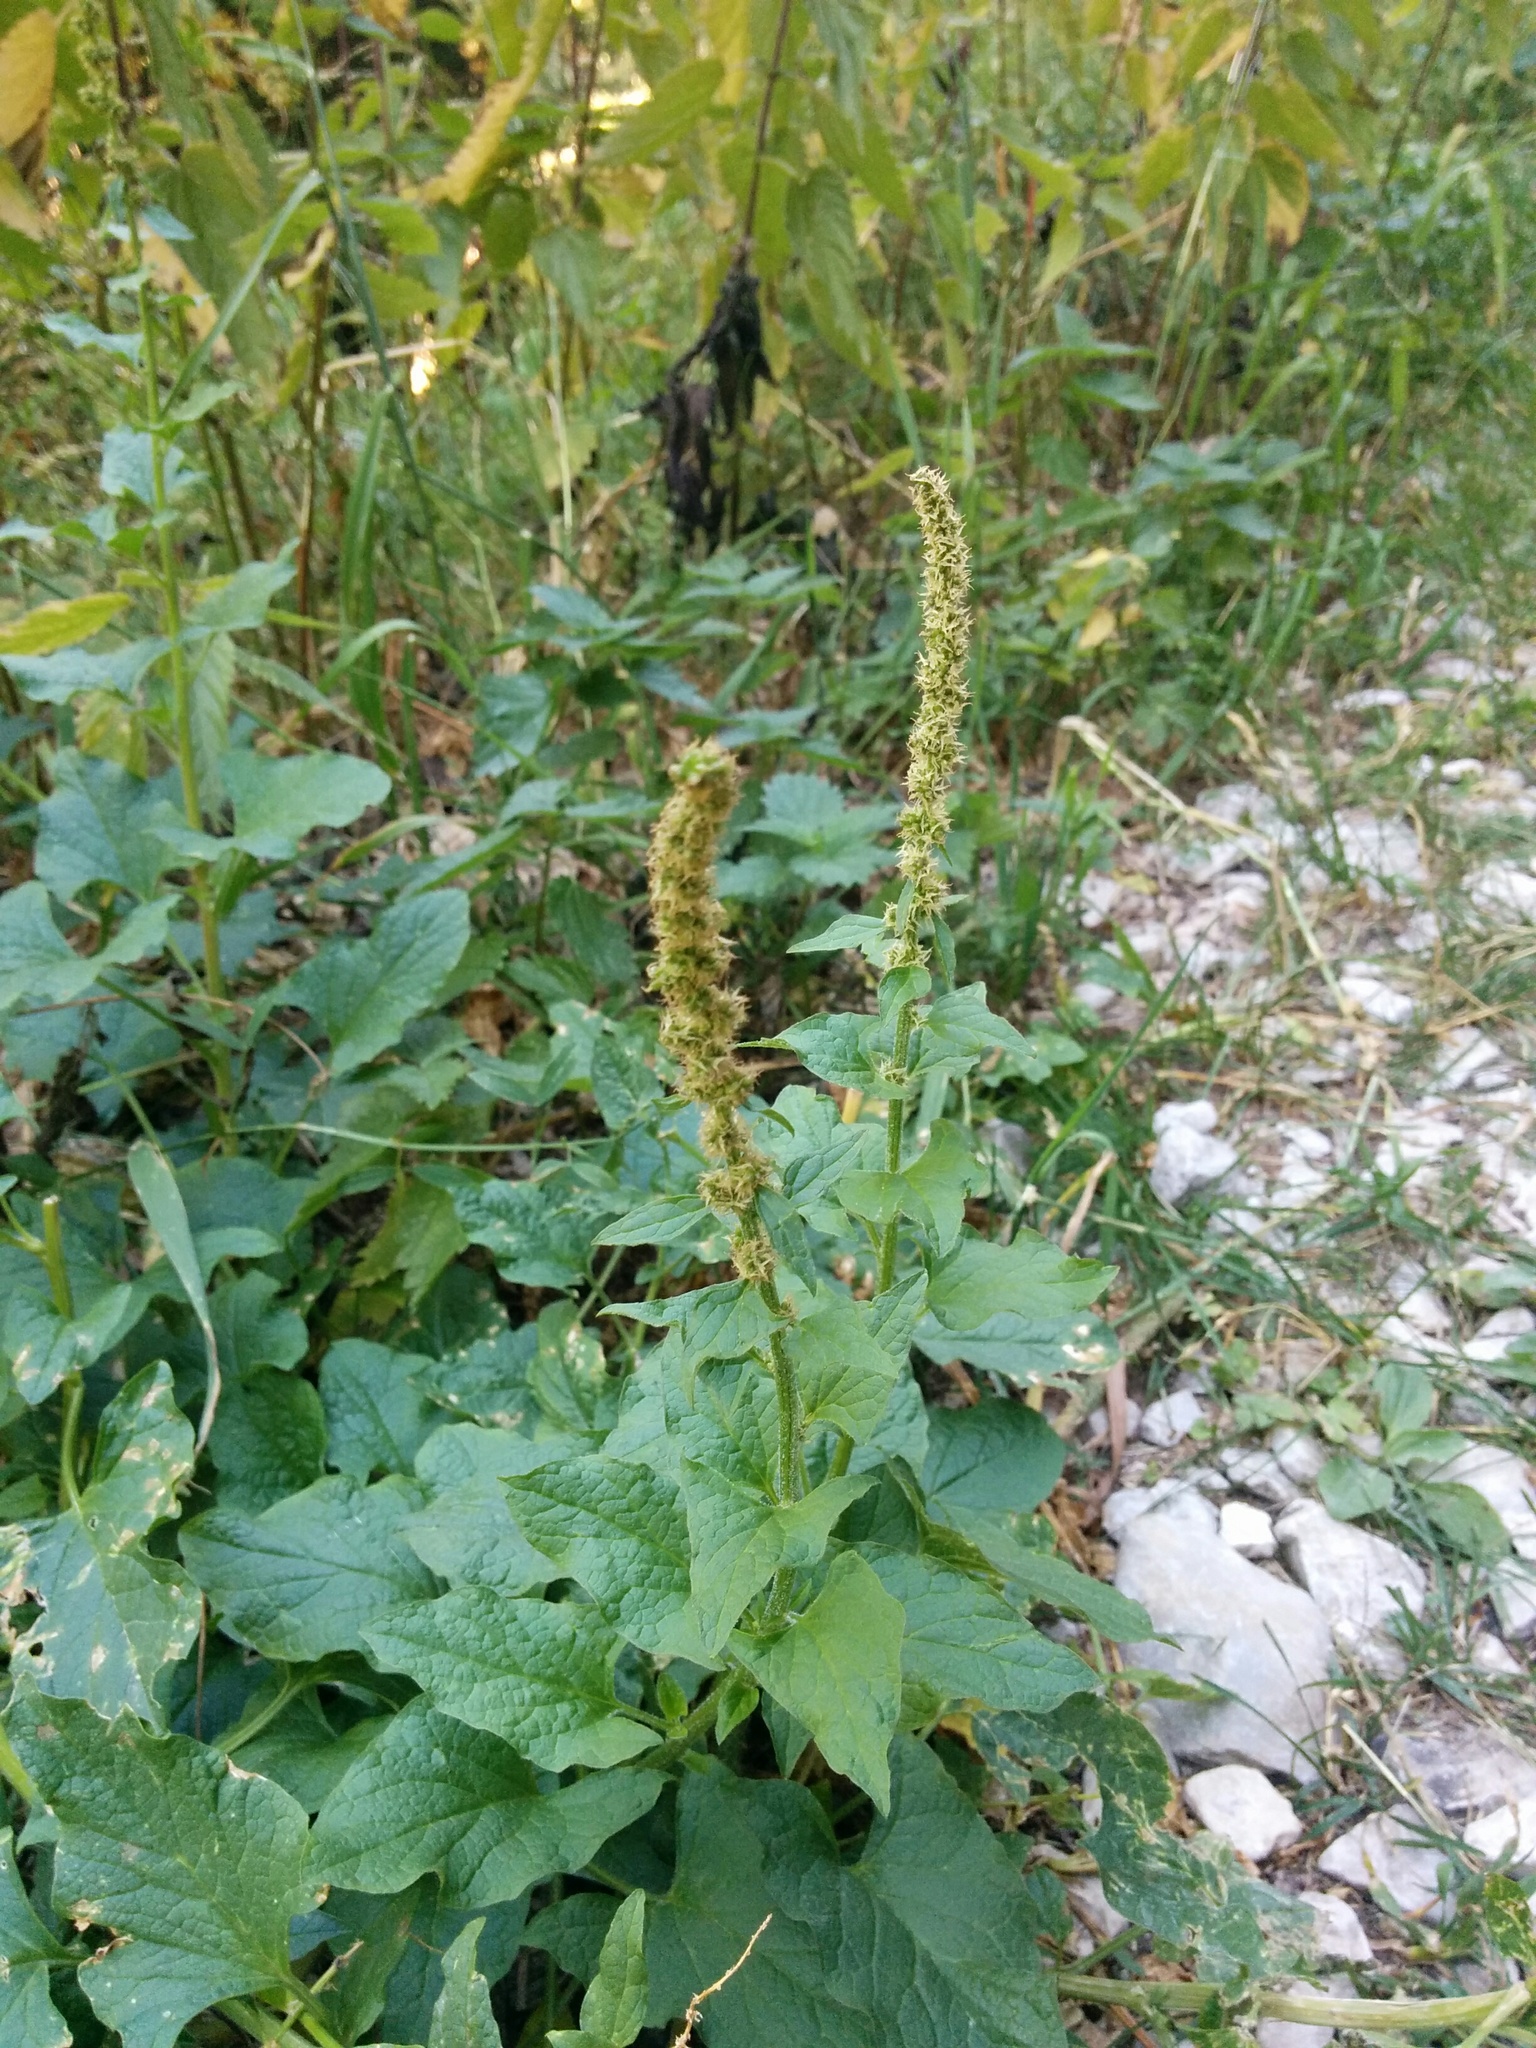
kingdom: Plantae
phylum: Tracheophyta
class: Magnoliopsida
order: Caryophyllales
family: Amaranthaceae
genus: Blitum
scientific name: Blitum bonus-henricus
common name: Good king henry
